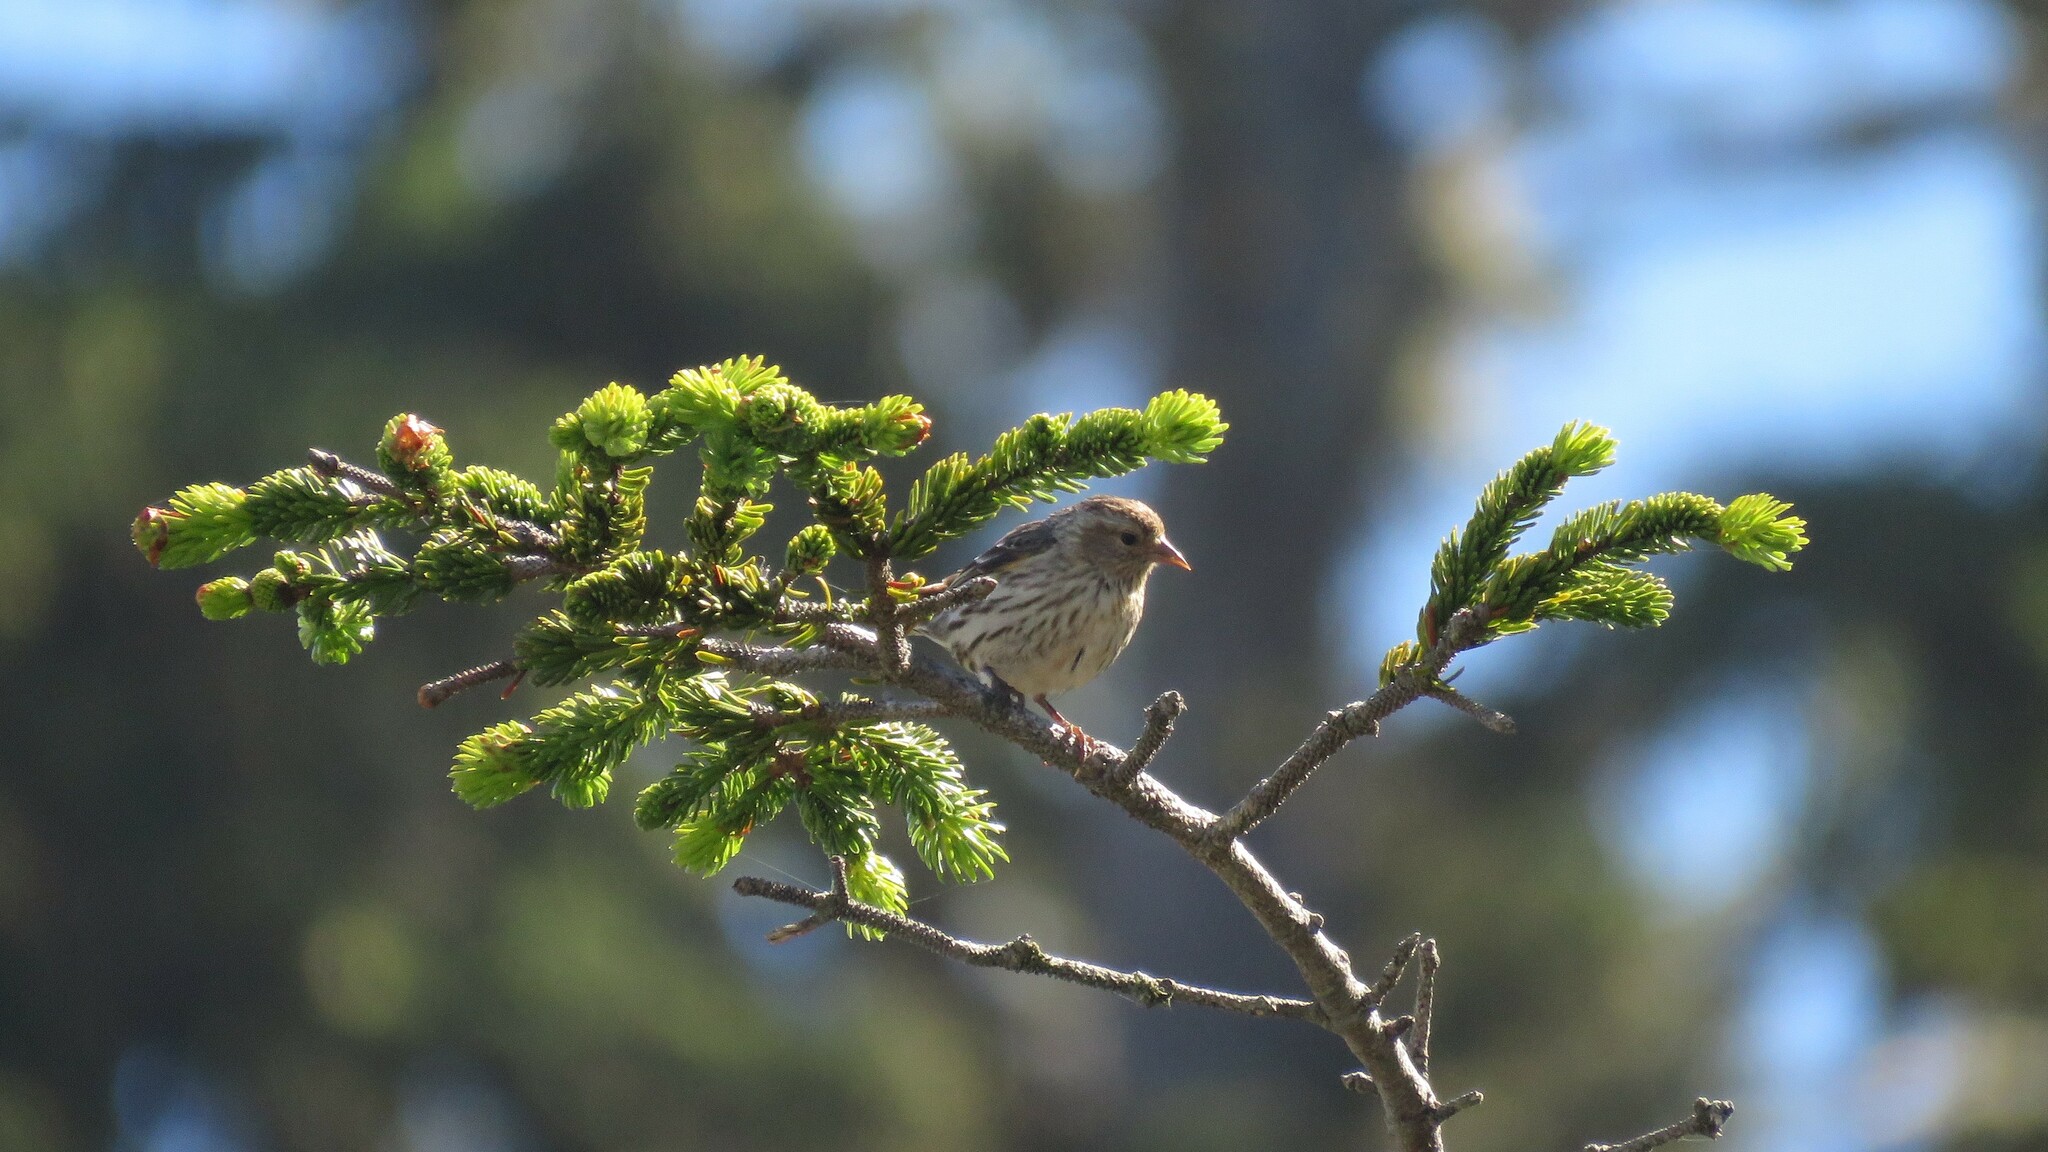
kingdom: Animalia
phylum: Chordata
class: Aves
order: Passeriformes
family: Fringillidae
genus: Spinus
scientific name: Spinus pinus
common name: Pine siskin
